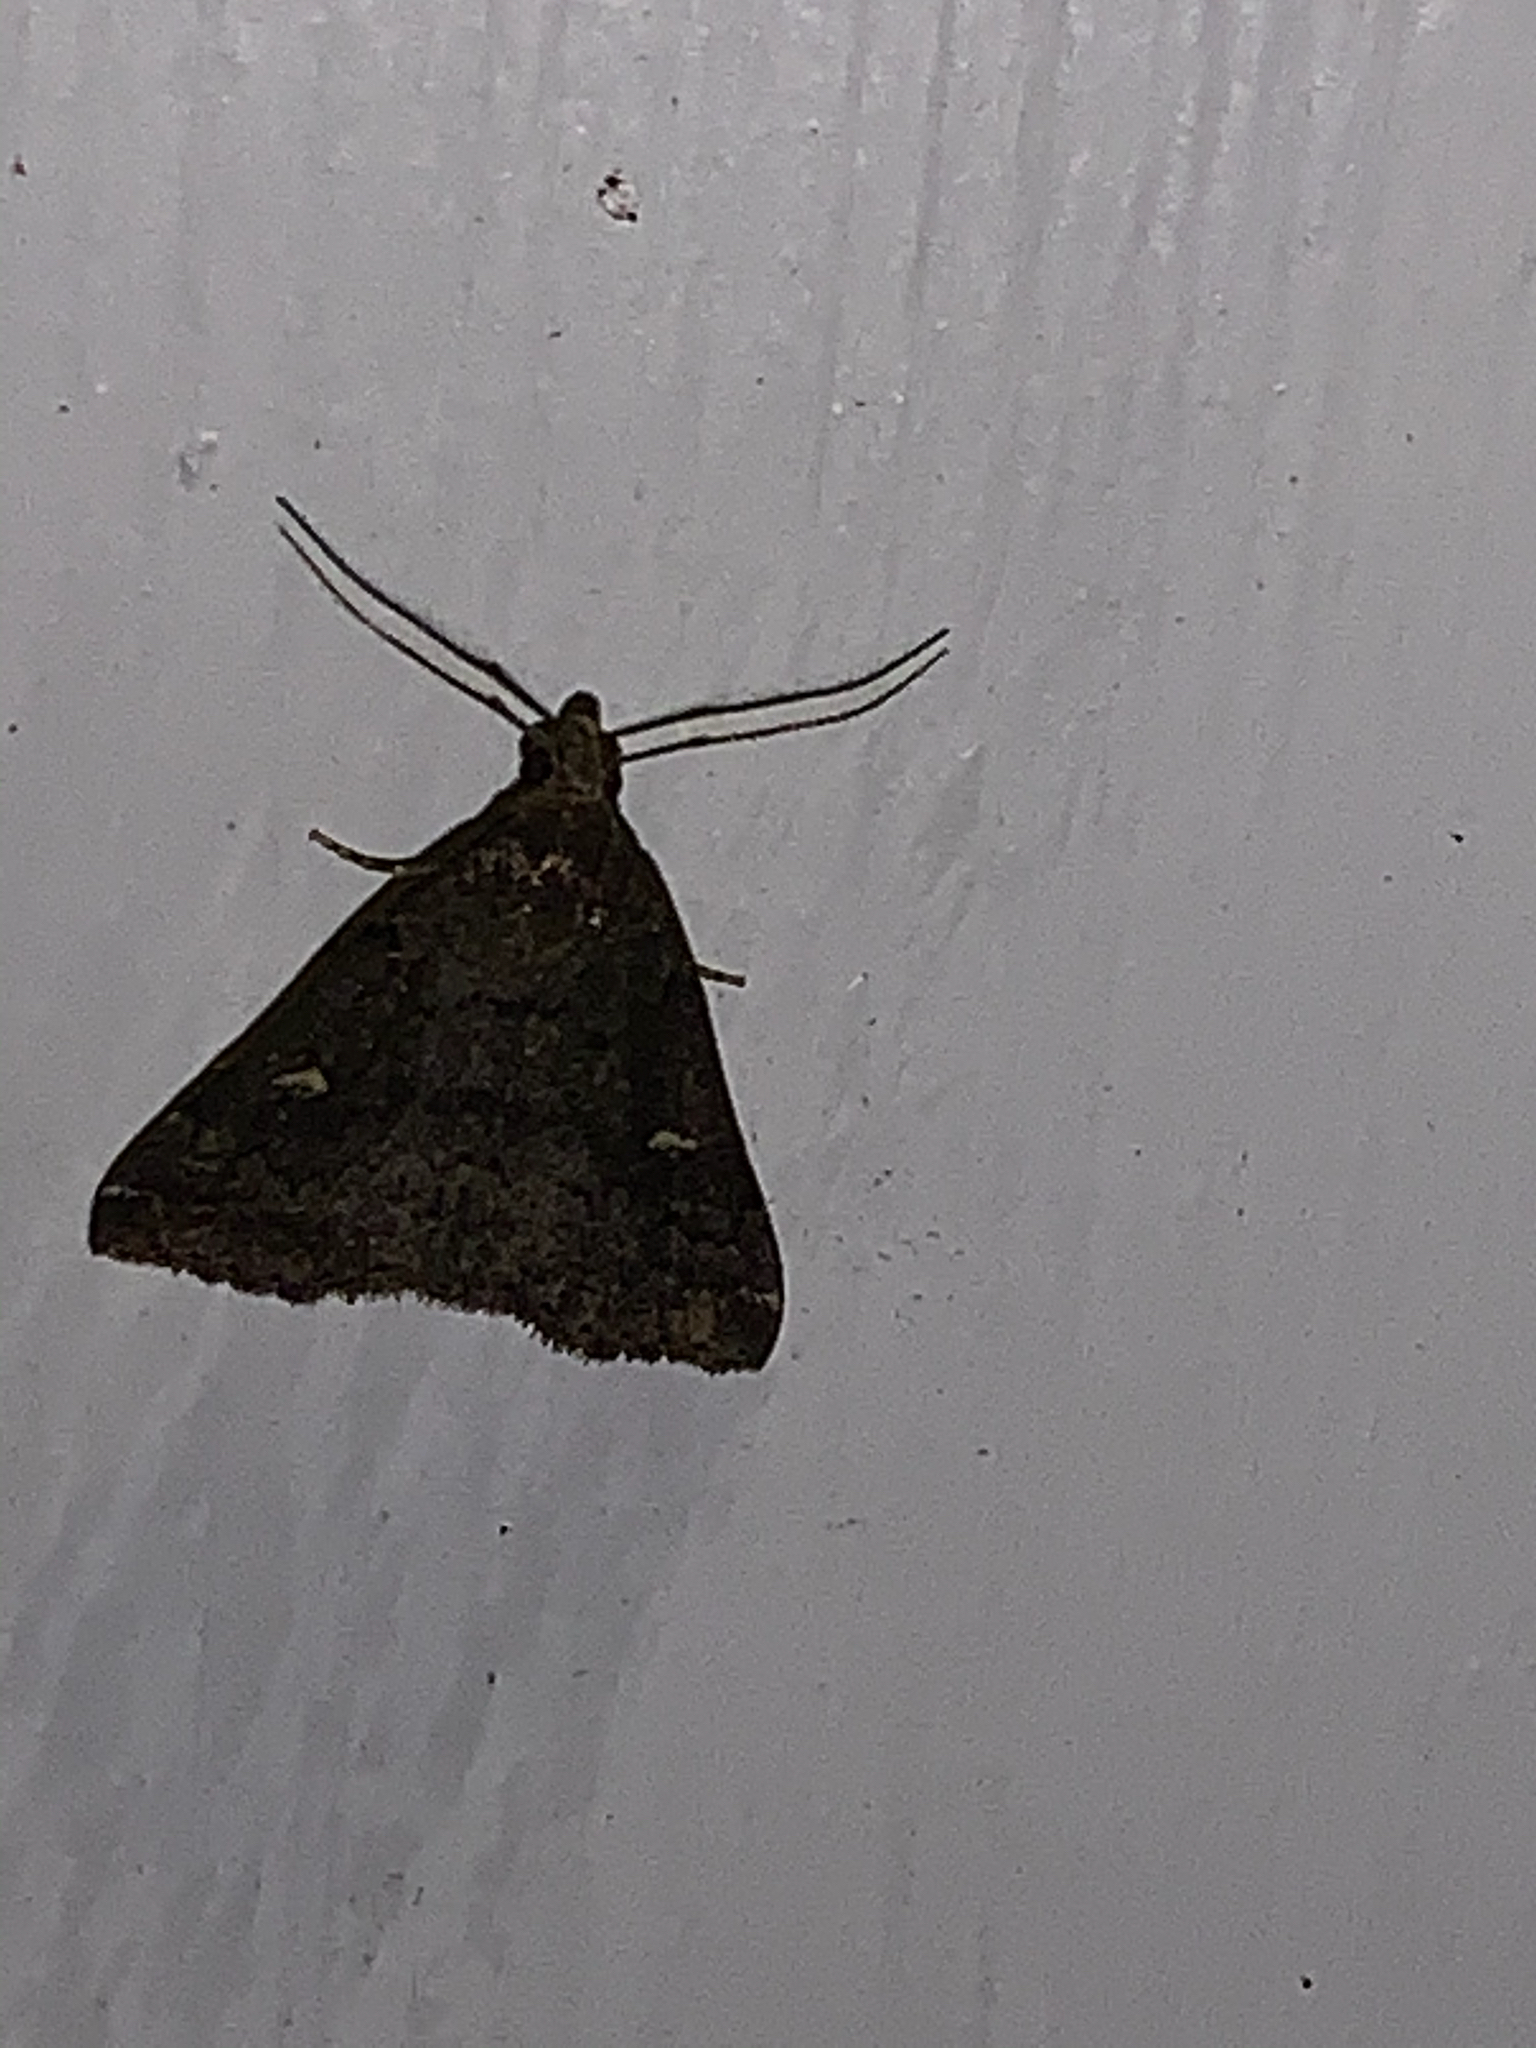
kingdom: Animalia
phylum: Arthropoda
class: Insecta
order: Lepidoptera
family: Erebidae
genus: Tetanolita
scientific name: Tetanolita mynesalis
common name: Smoky tetanolita moth
